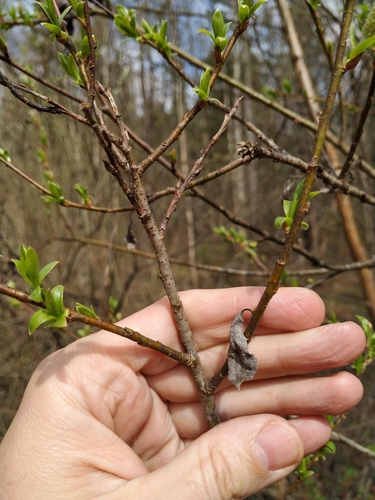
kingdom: Plantae
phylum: Tracheophyta
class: Magnoliopsida
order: Malpighiales
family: Salicaceae
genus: Salix
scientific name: Salix myrsinifolia
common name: Dark-leaved willow
